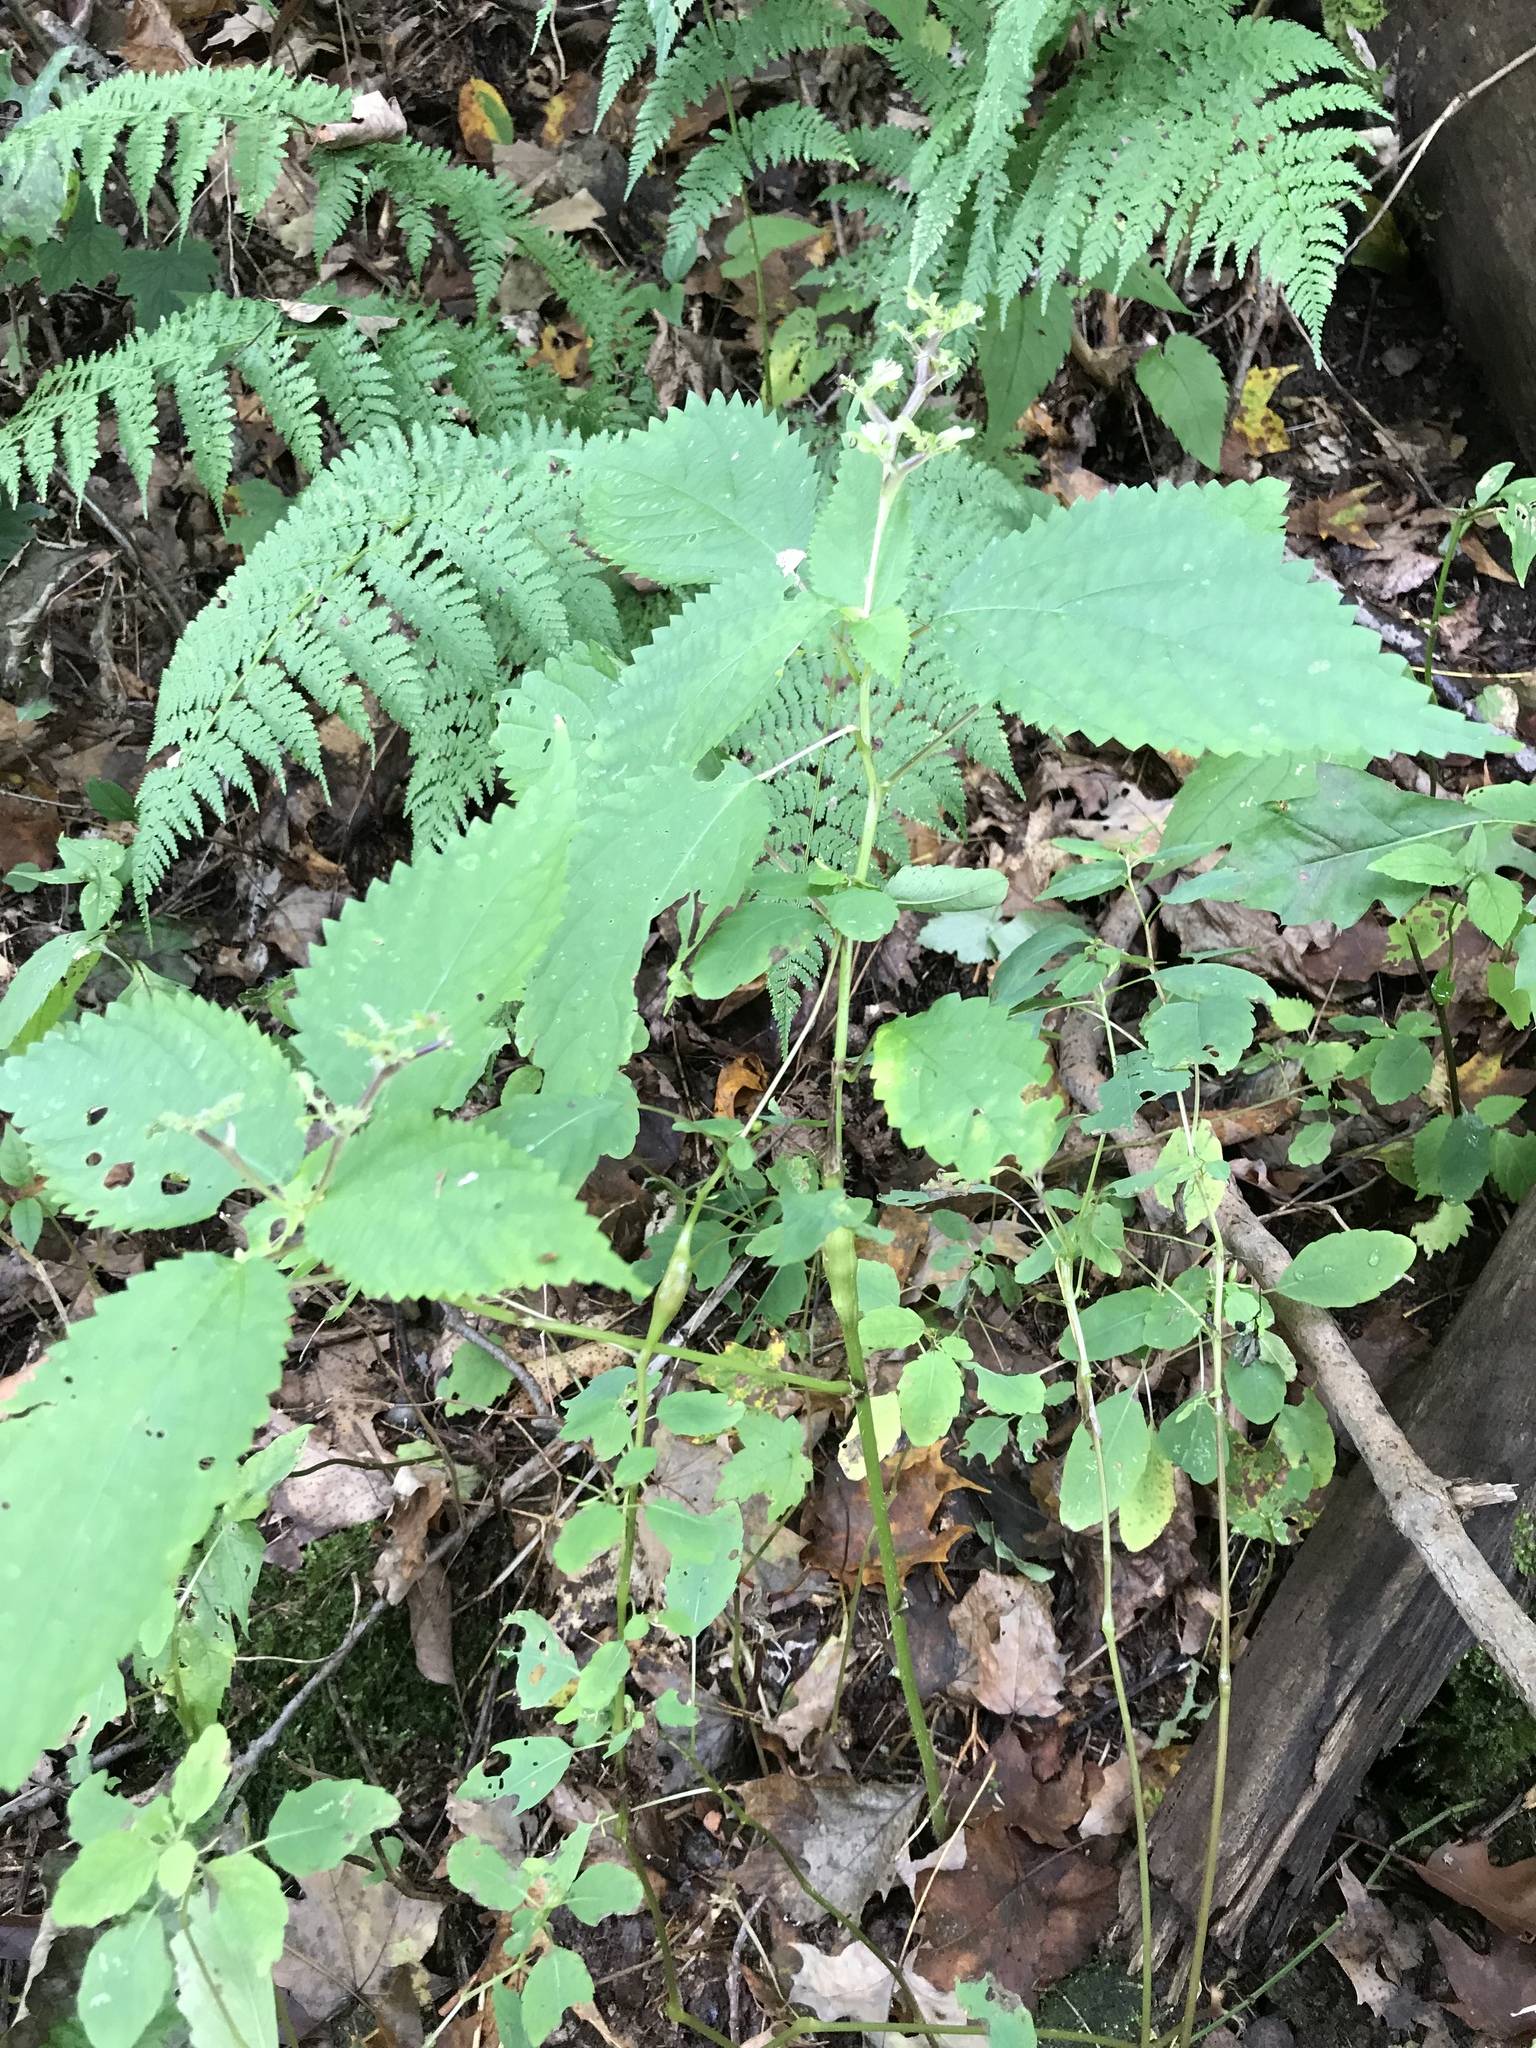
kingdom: Plantae
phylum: Tracheophyta
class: Magnoliopsida
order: Rosales
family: Urticaceae
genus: Laportea
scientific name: Laportea canadensis
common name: Canada nettle
